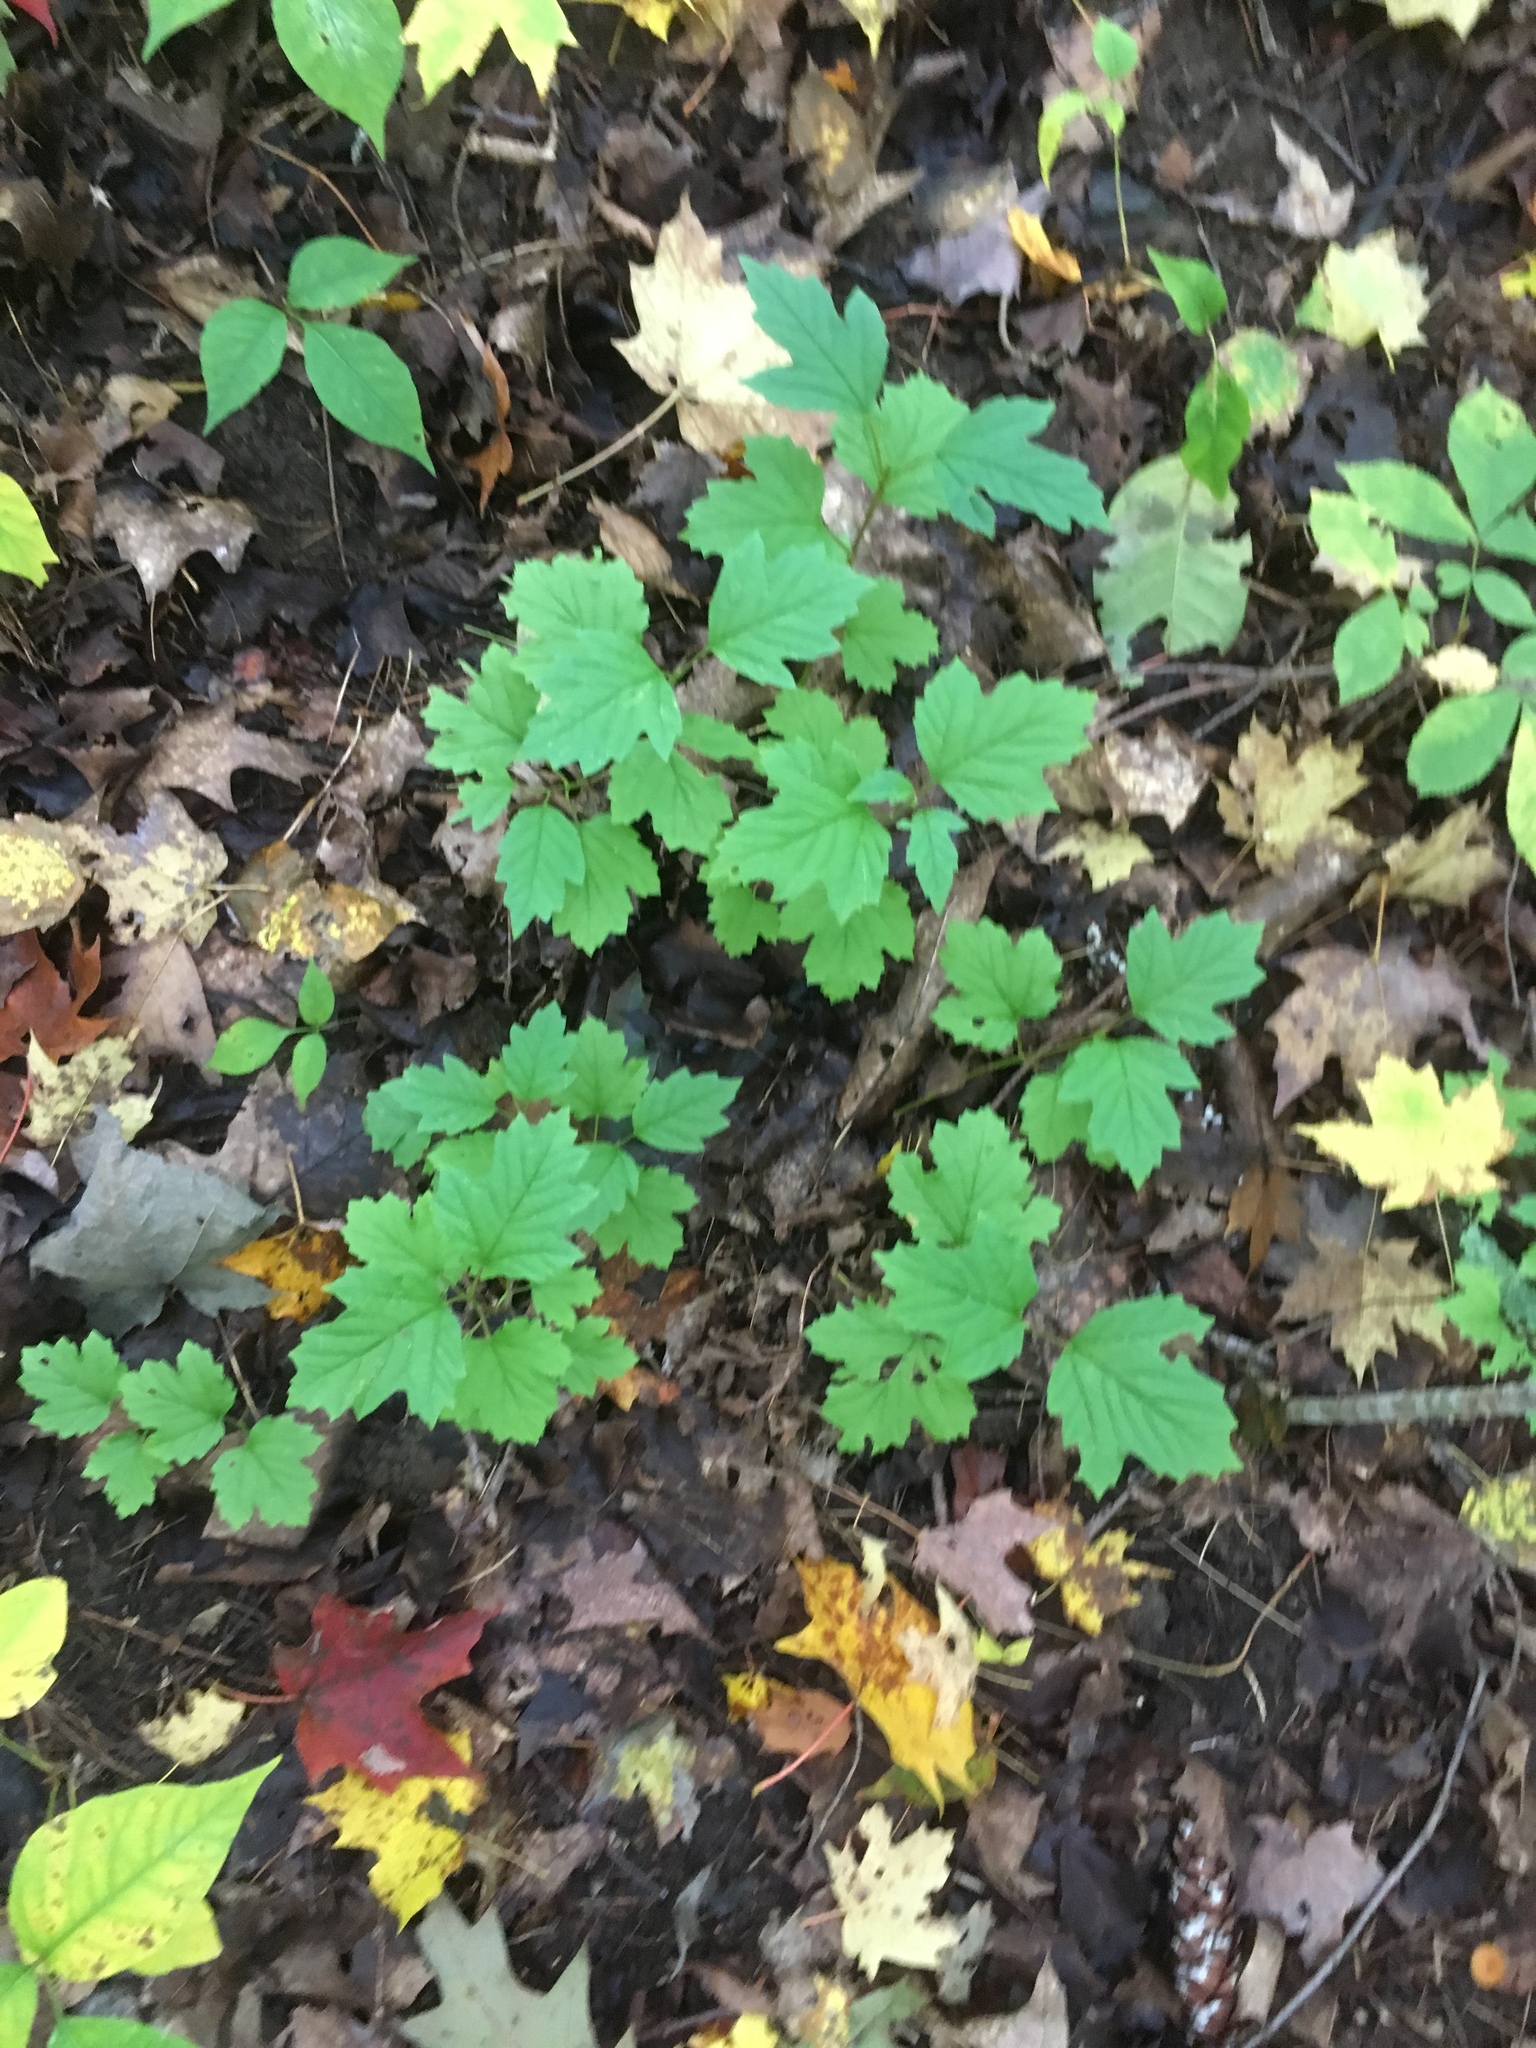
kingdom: Plantae
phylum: Tracheophyta
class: Magnoliopsida
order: Dipsacales
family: Viburnaceae
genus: Viburnum
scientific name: Viburnum acerifolium
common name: Dockmackie
